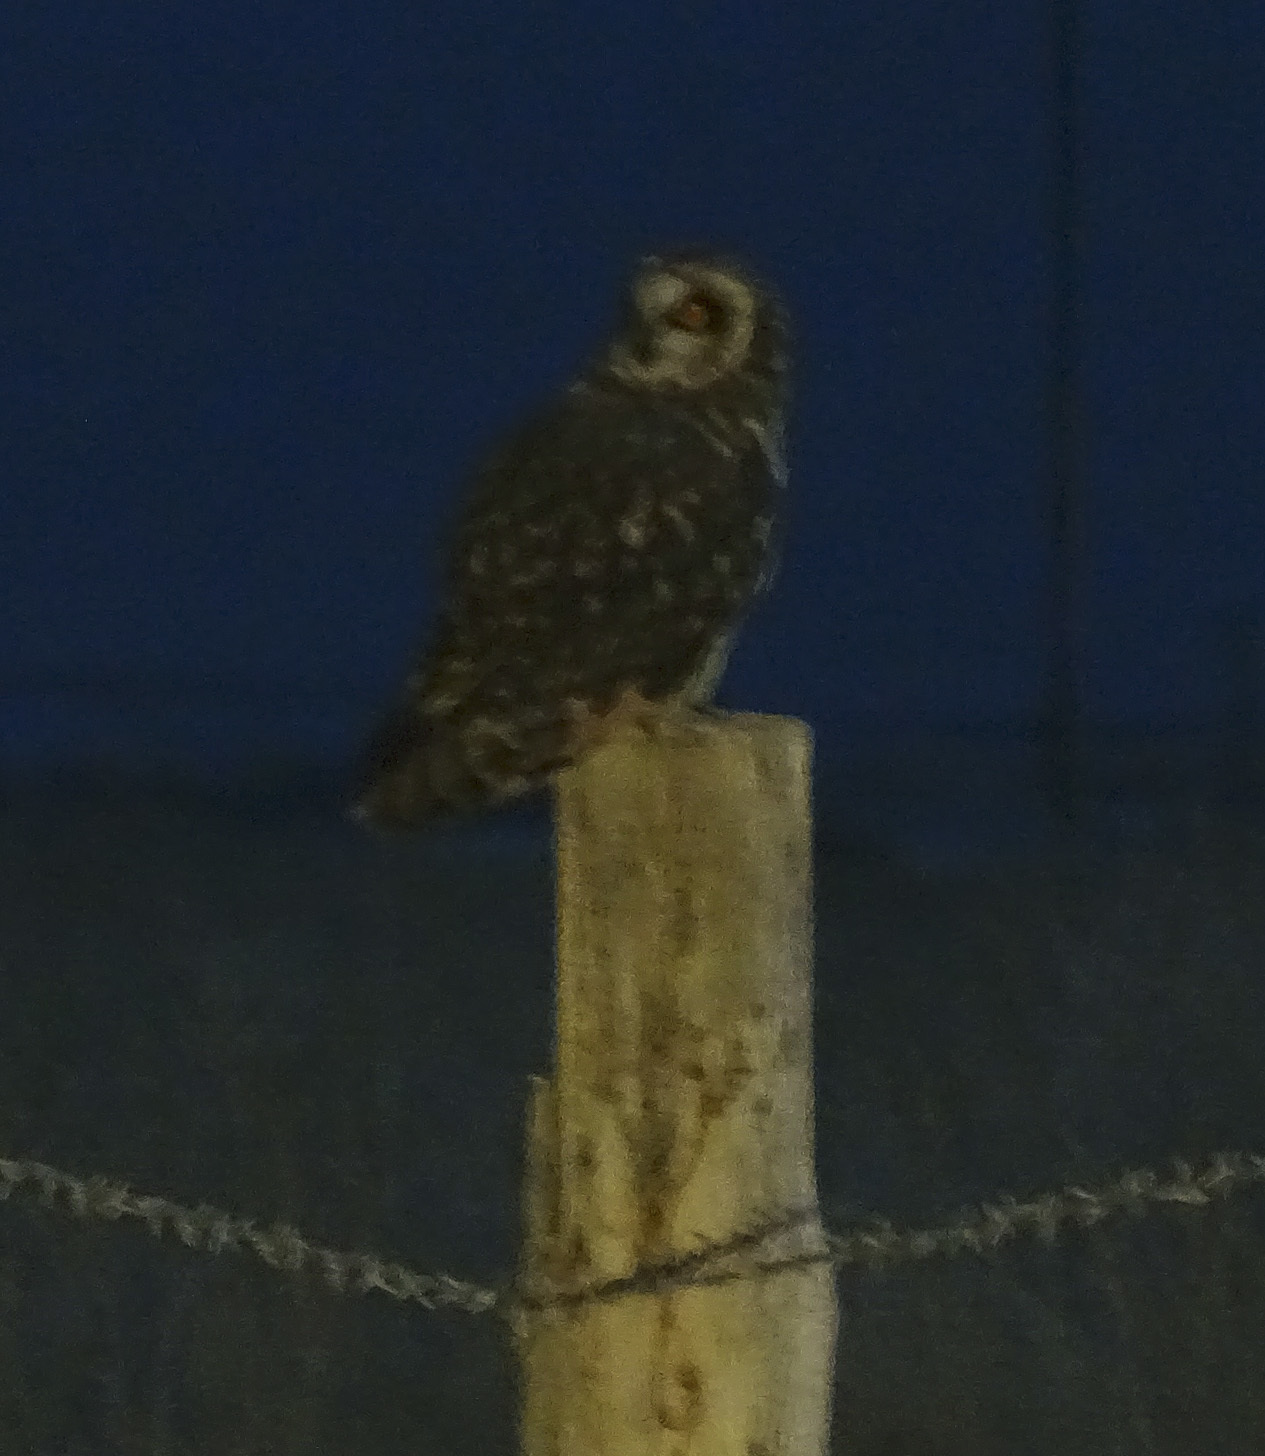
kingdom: Animalia
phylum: Chordata
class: Aves
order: Strigiformes
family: Strigidae
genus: Asio
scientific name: Asio flammeus
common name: Short-eared owl
